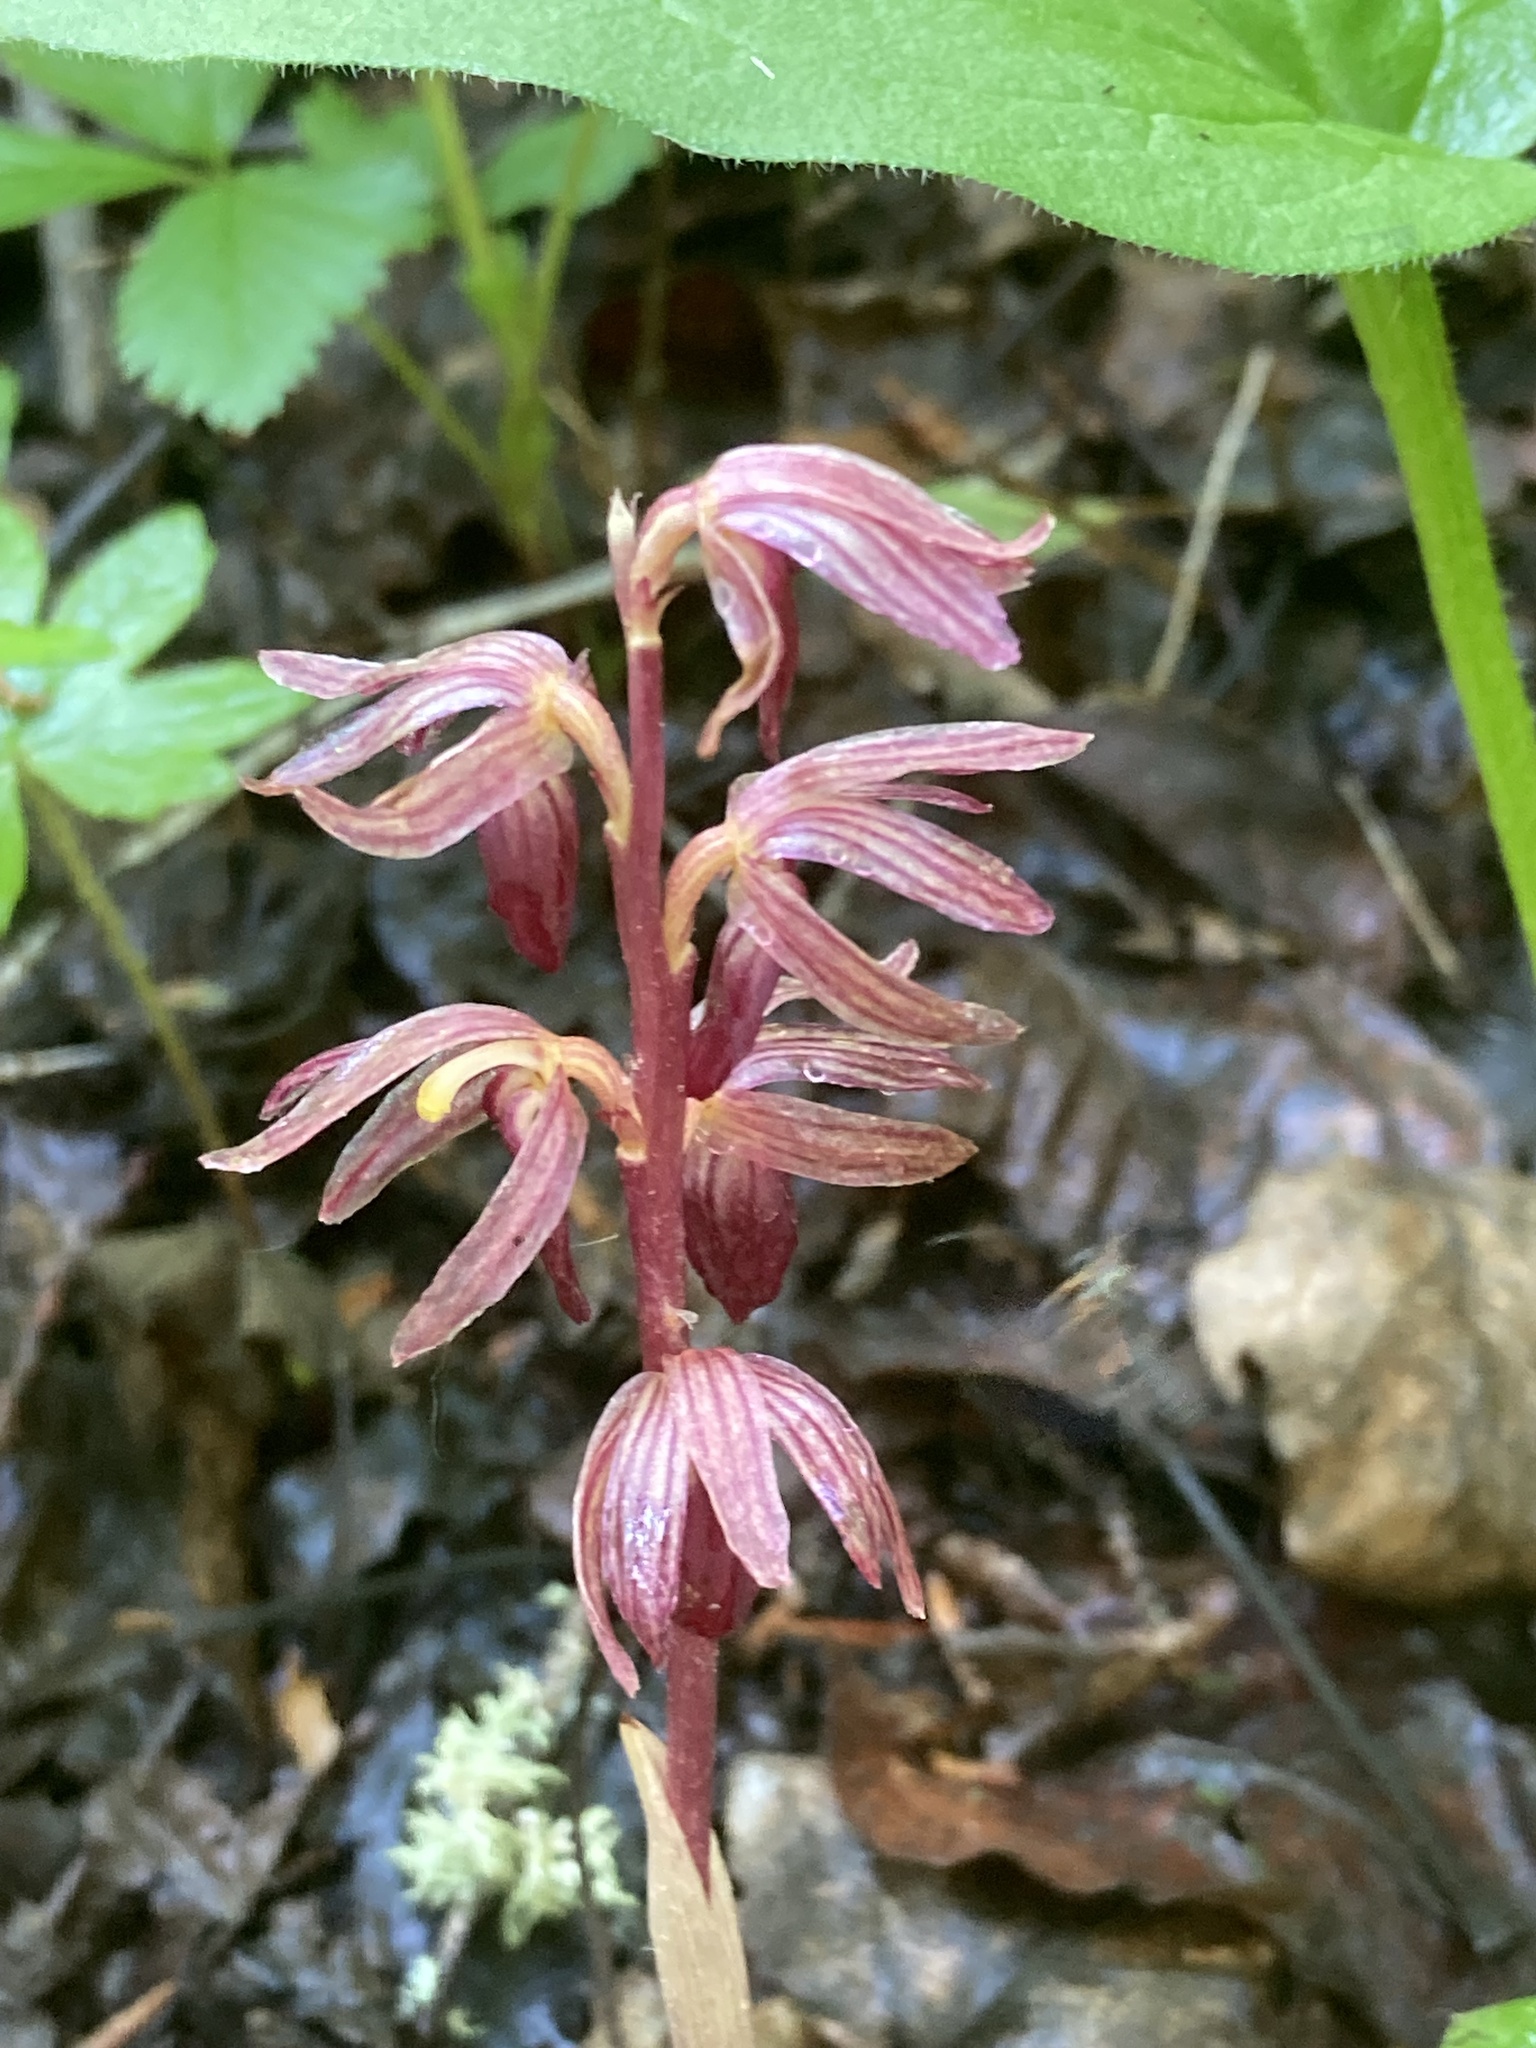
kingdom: Plantae
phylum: Tracheophyta
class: Liliopsida
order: Asparagales
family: Orchidaceae
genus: Corallorhiza
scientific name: Corallorhiza striata
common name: Hooded coralroot
